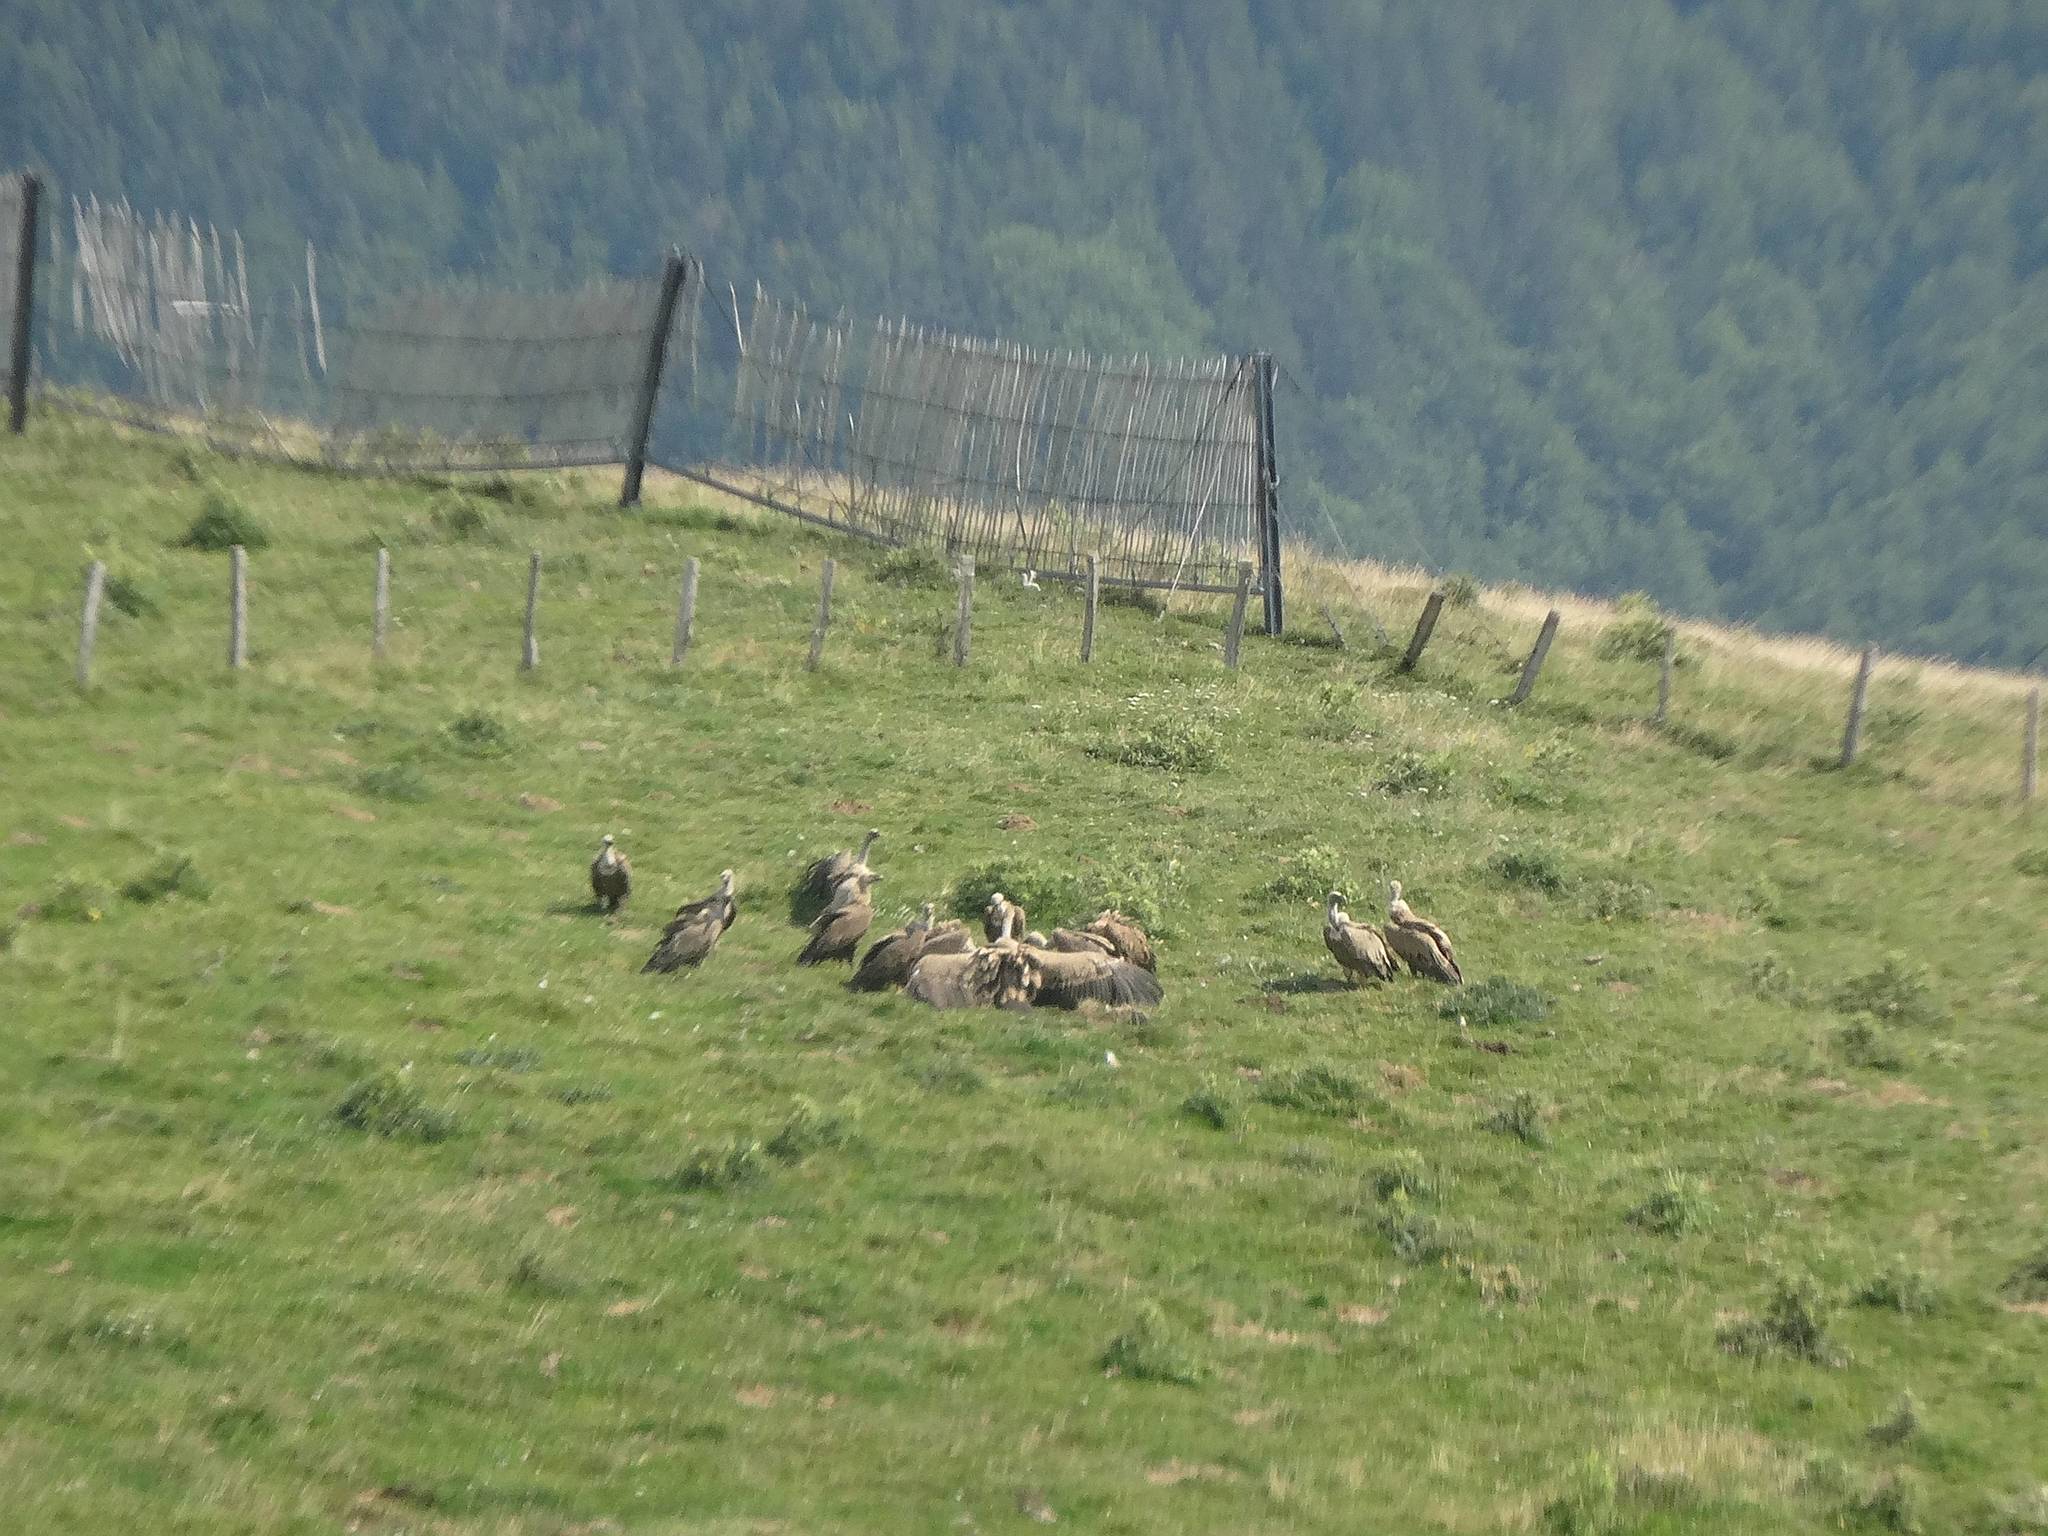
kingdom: Animalia
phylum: Chordata
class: Aves
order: Accipitriformes
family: Accipitridae
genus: Gyps
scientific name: Gyps fulvus
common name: Griffon vulture
